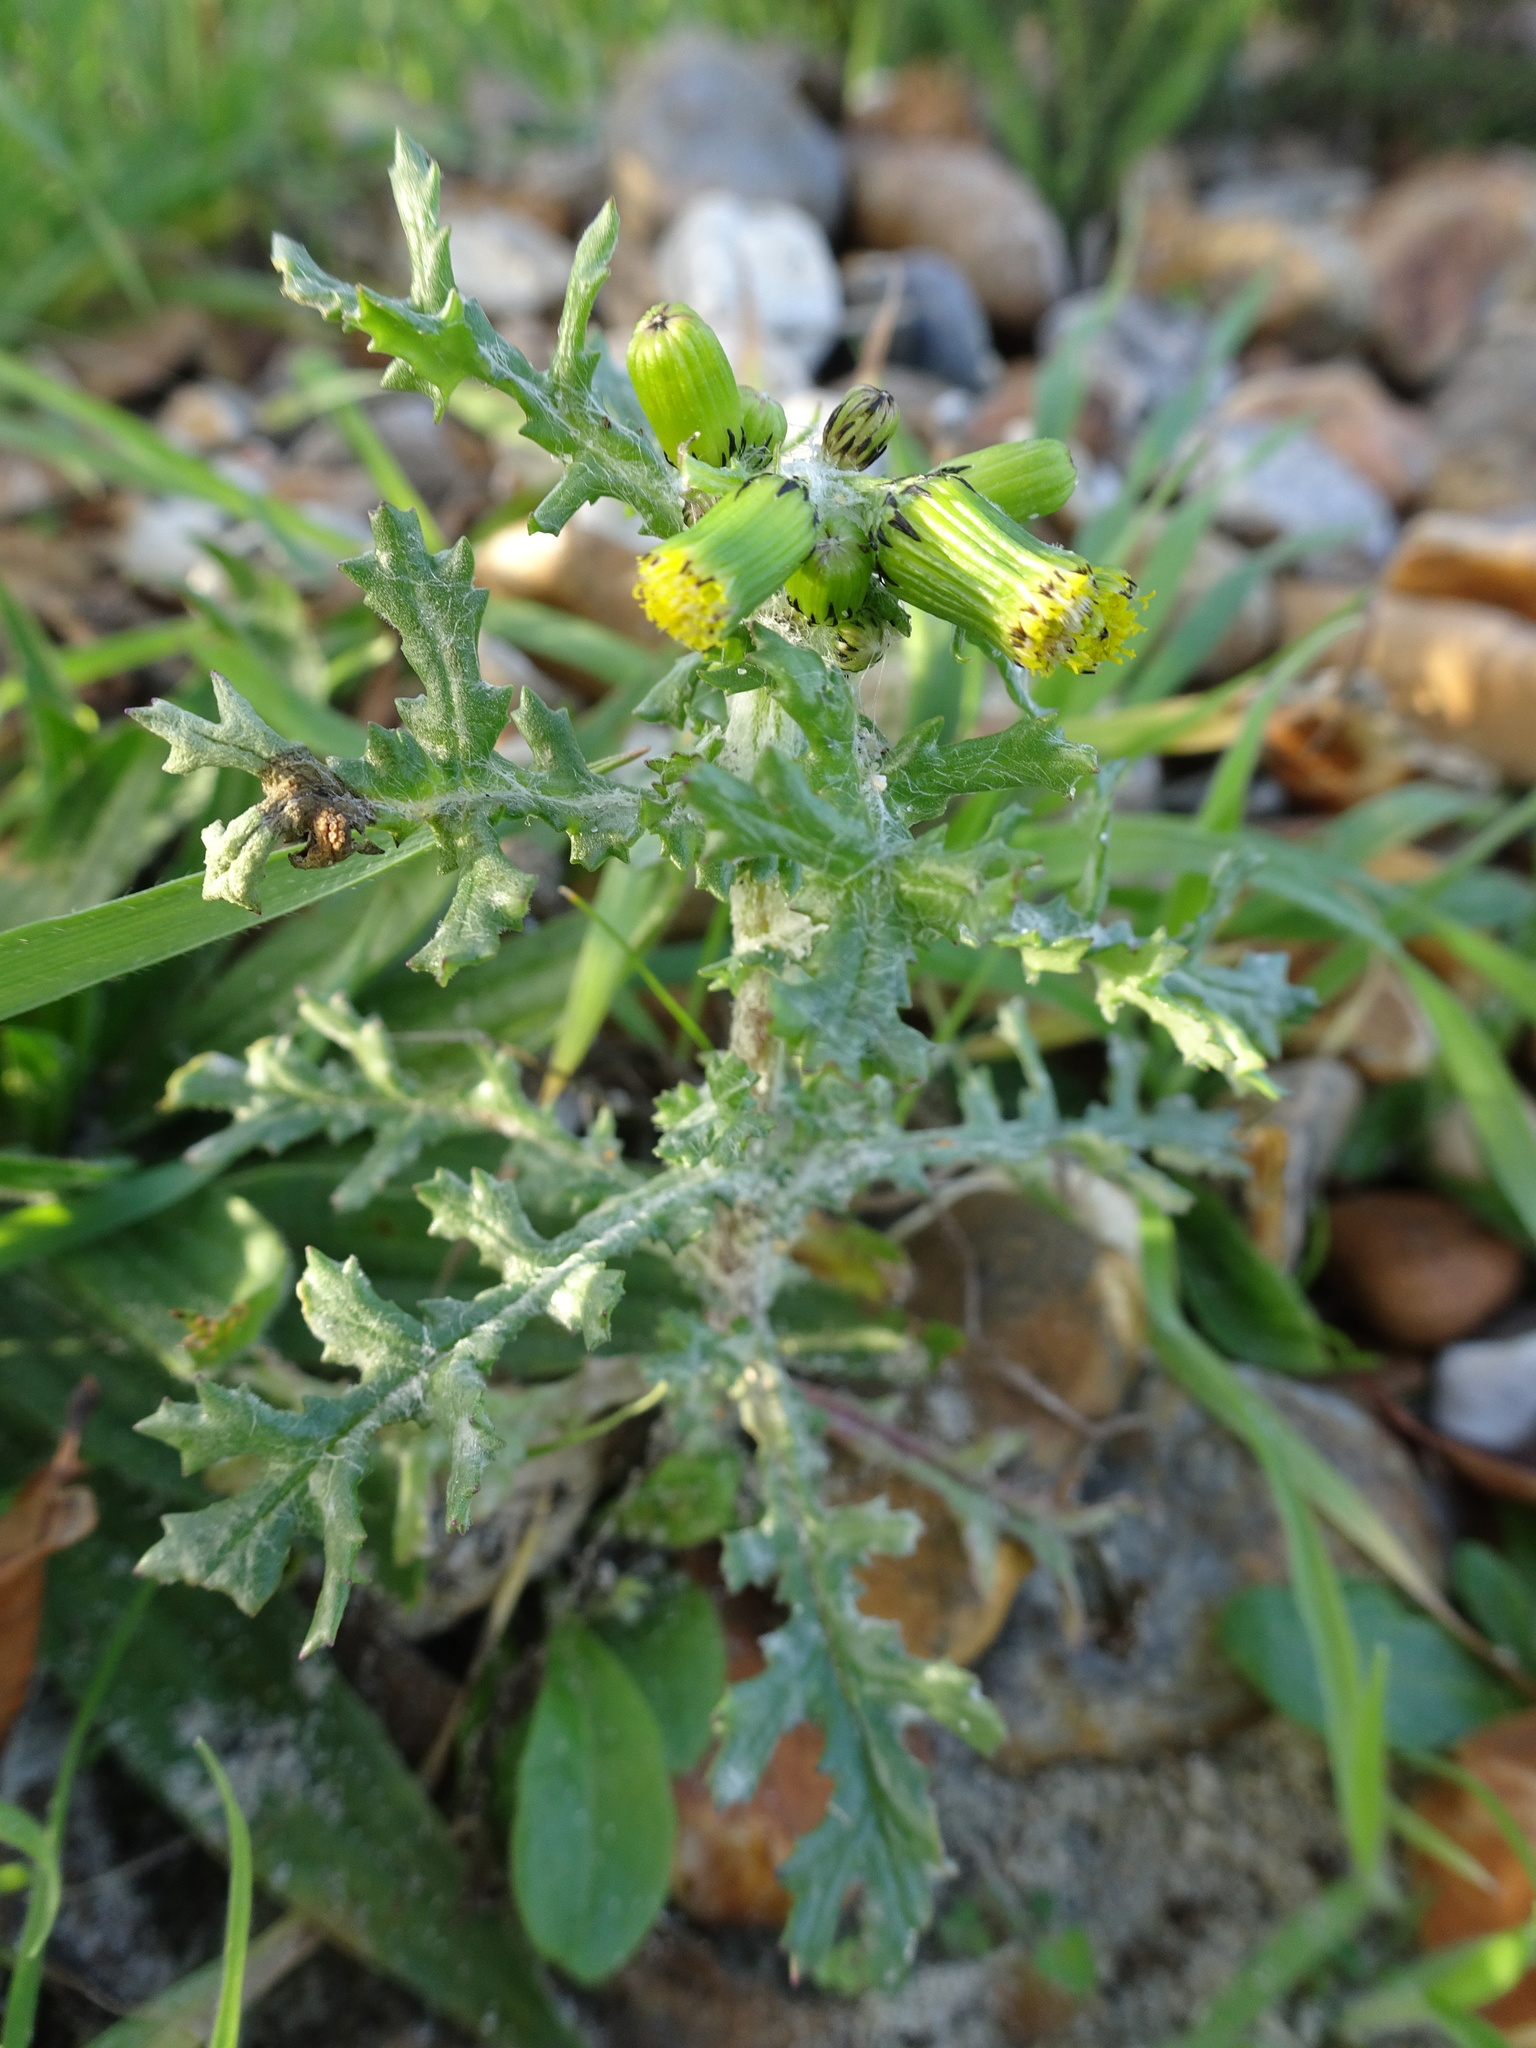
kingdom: Plantae
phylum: Tracheophyta
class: Magnoliopsida
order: Asterales
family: Asteraceae
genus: Senecio
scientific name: Senecio vulgaris
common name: Old-man-in-the-spring
